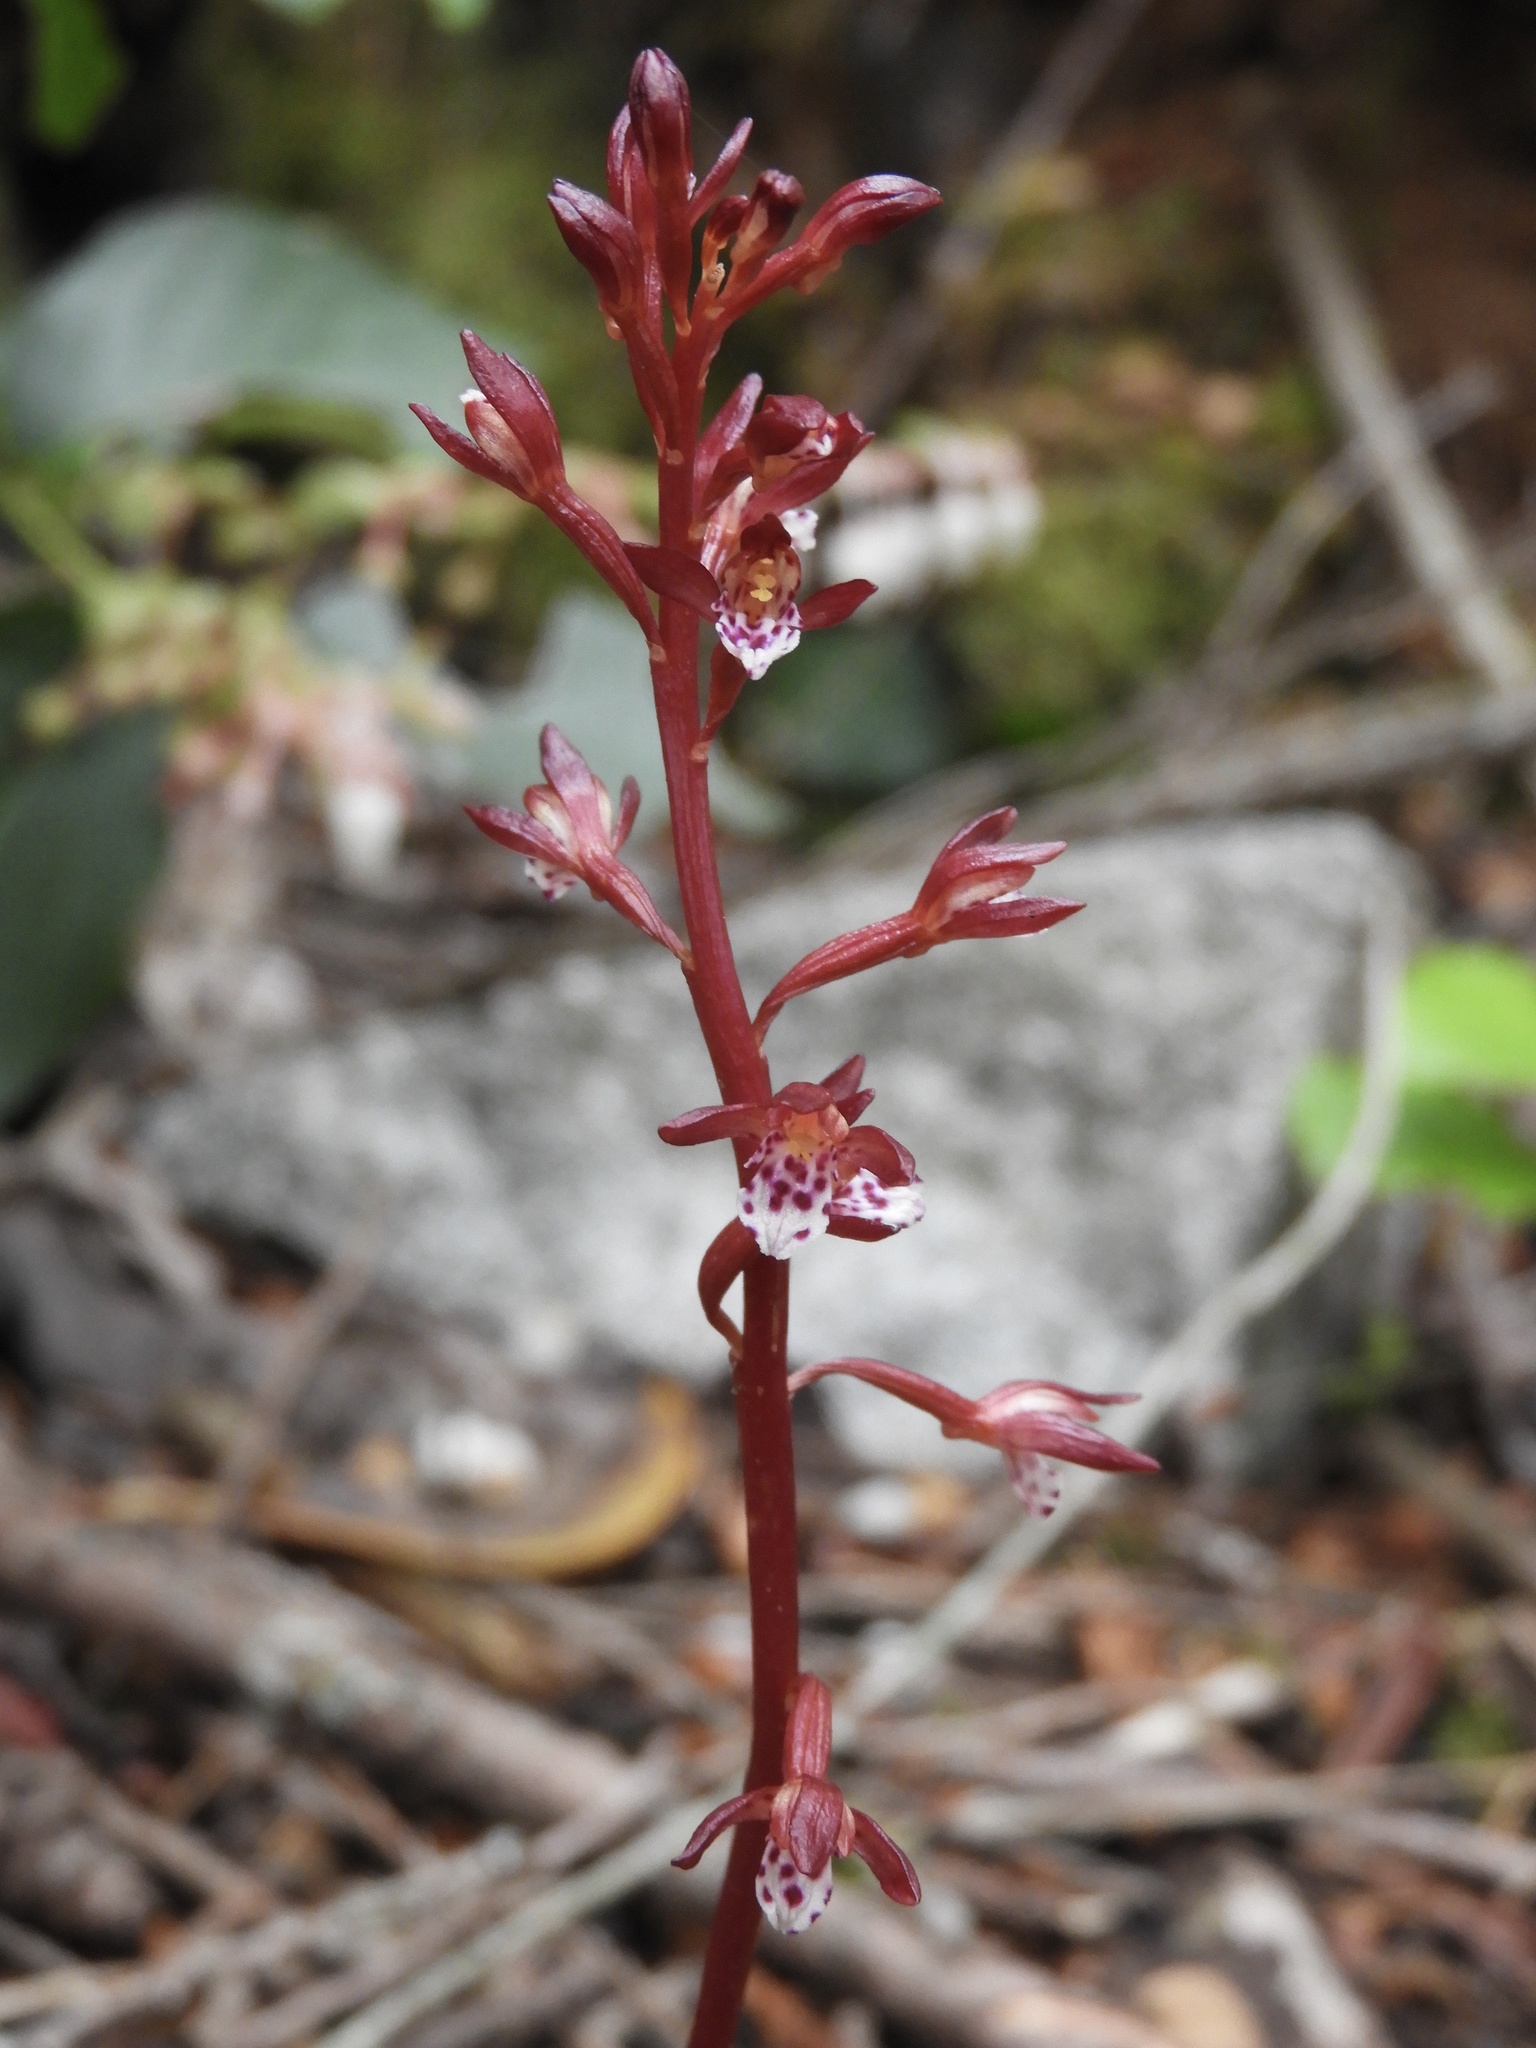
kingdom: Plantae
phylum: Tracheophyta
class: Liliopsida
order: Asparagales
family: Orchidaceae
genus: Corallorhiza
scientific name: Corallorhiza maculata
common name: Spotted coralroot
